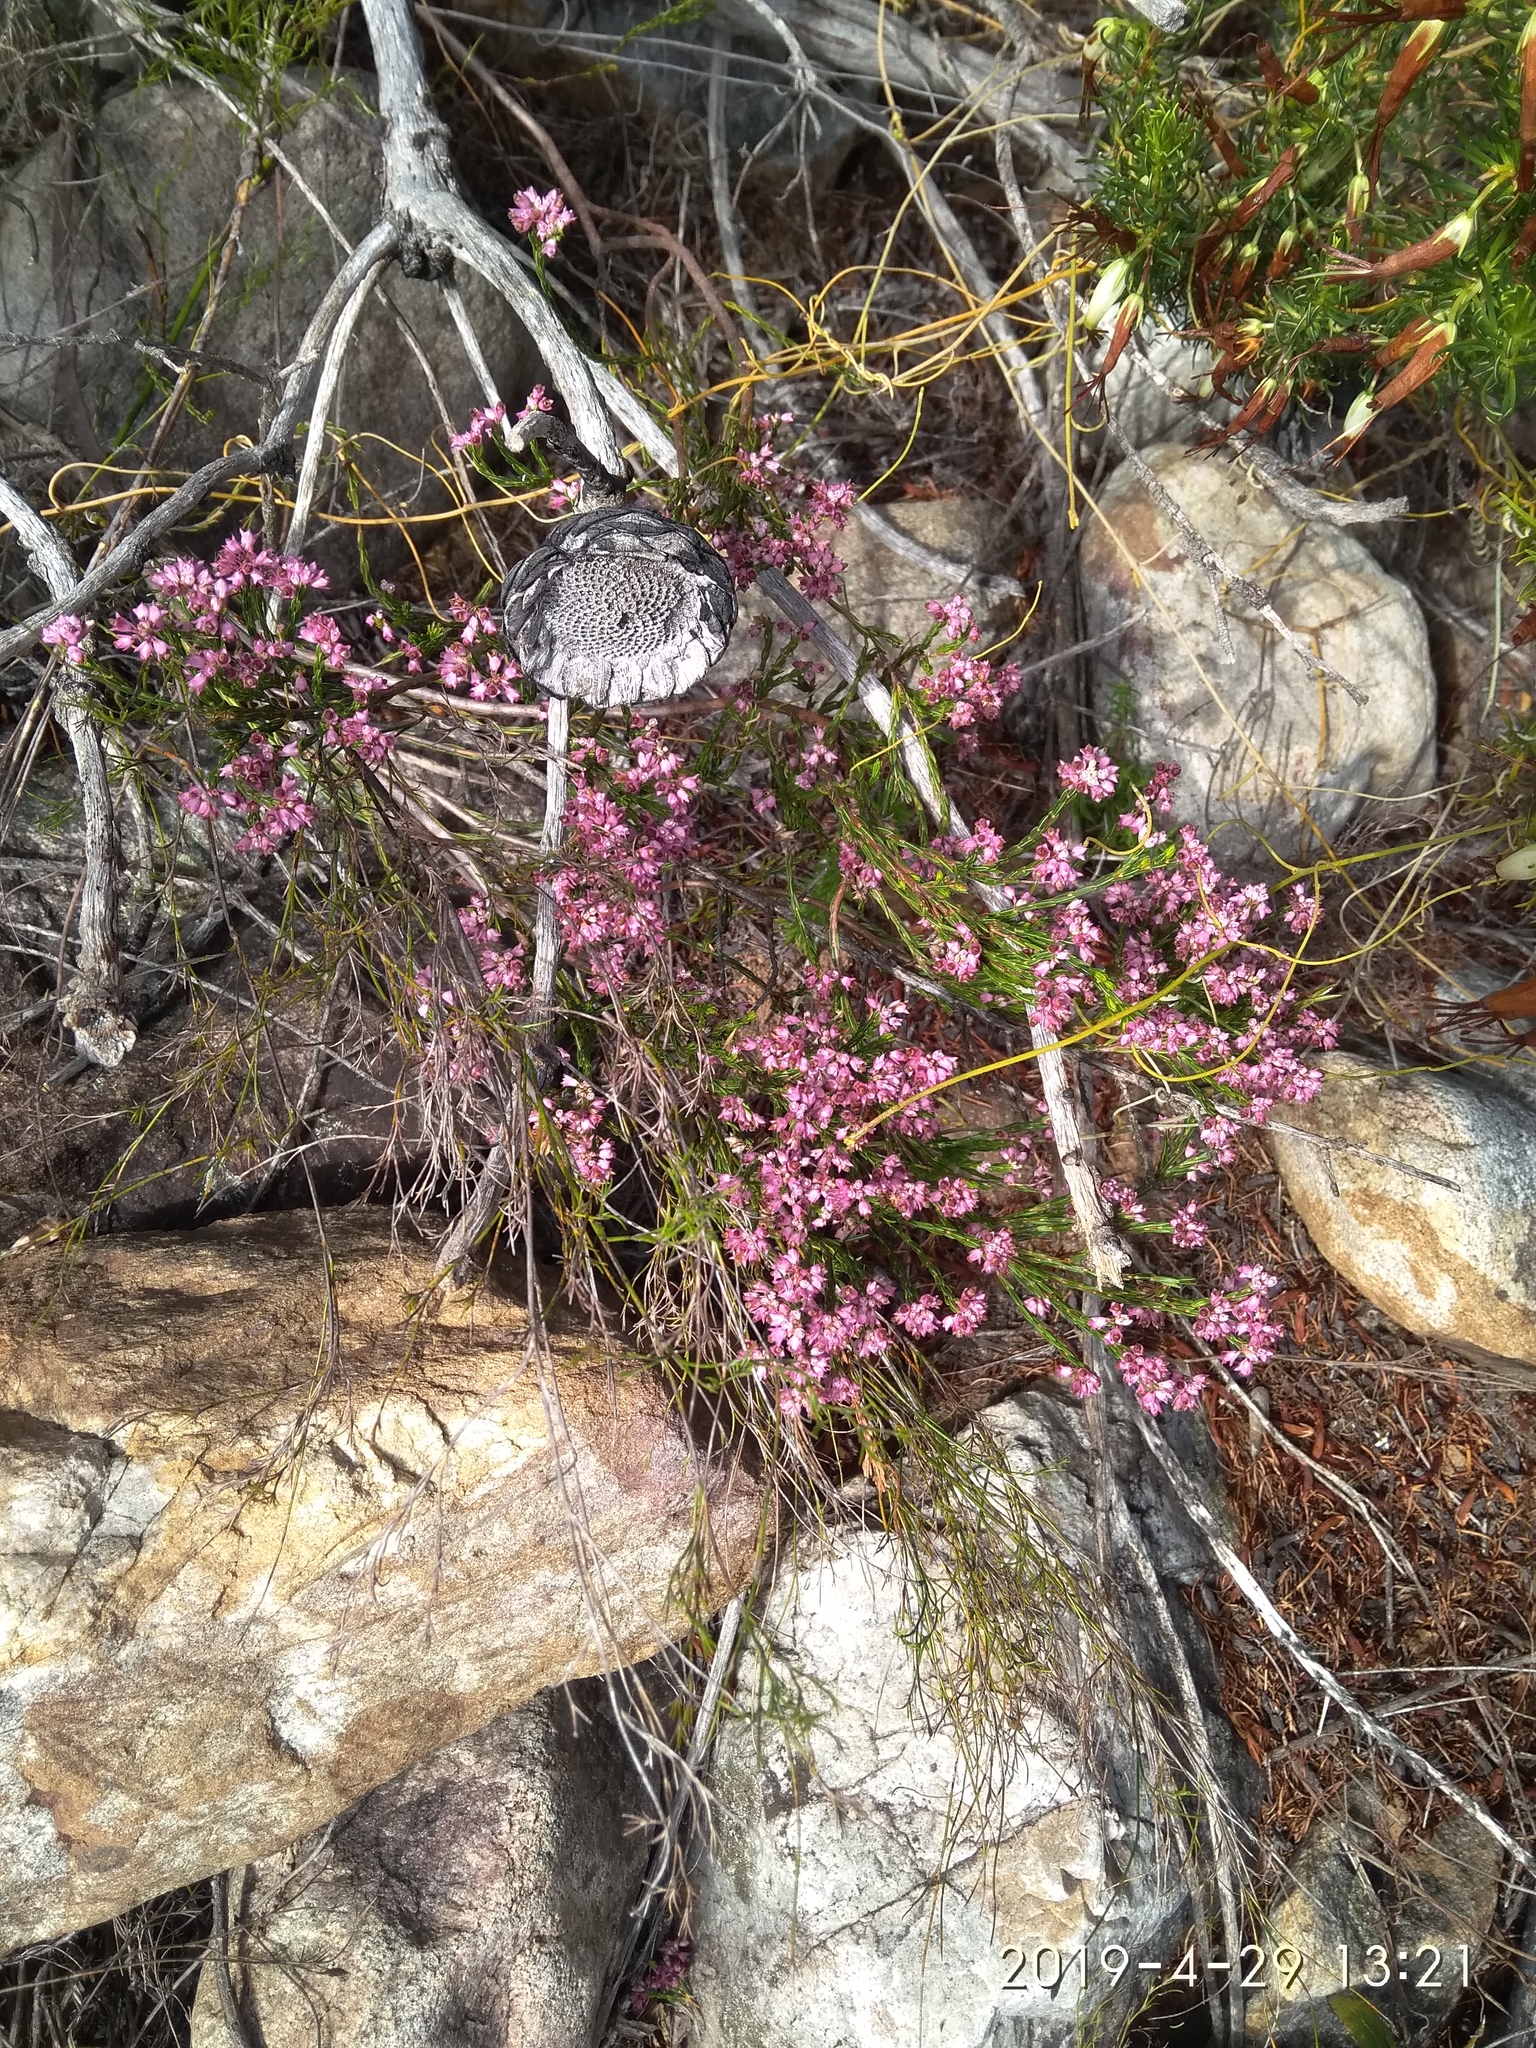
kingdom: Plantae
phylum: Tracheophyta
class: Magnoliopsida
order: Ericales
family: Ericaceae
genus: Erica
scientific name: Erica corifolia
